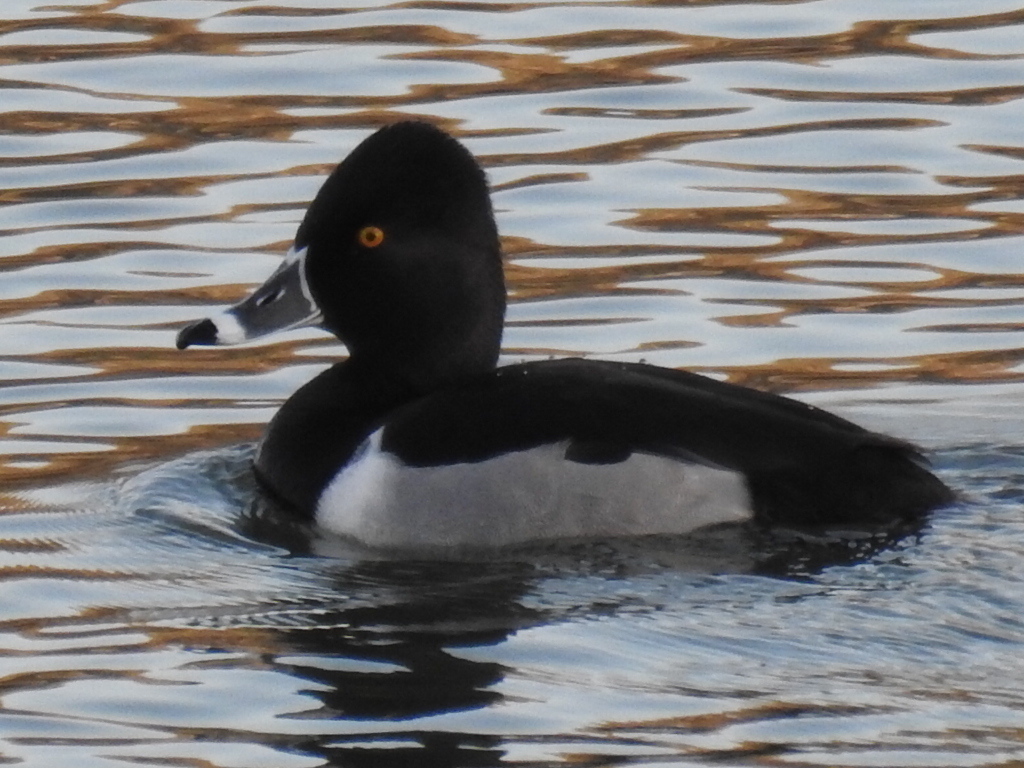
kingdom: Animalia
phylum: Chordata
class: Aves
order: Anseriformes
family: Anatidae
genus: Aythya
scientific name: Aythya collaris
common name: Ring-necked duck
